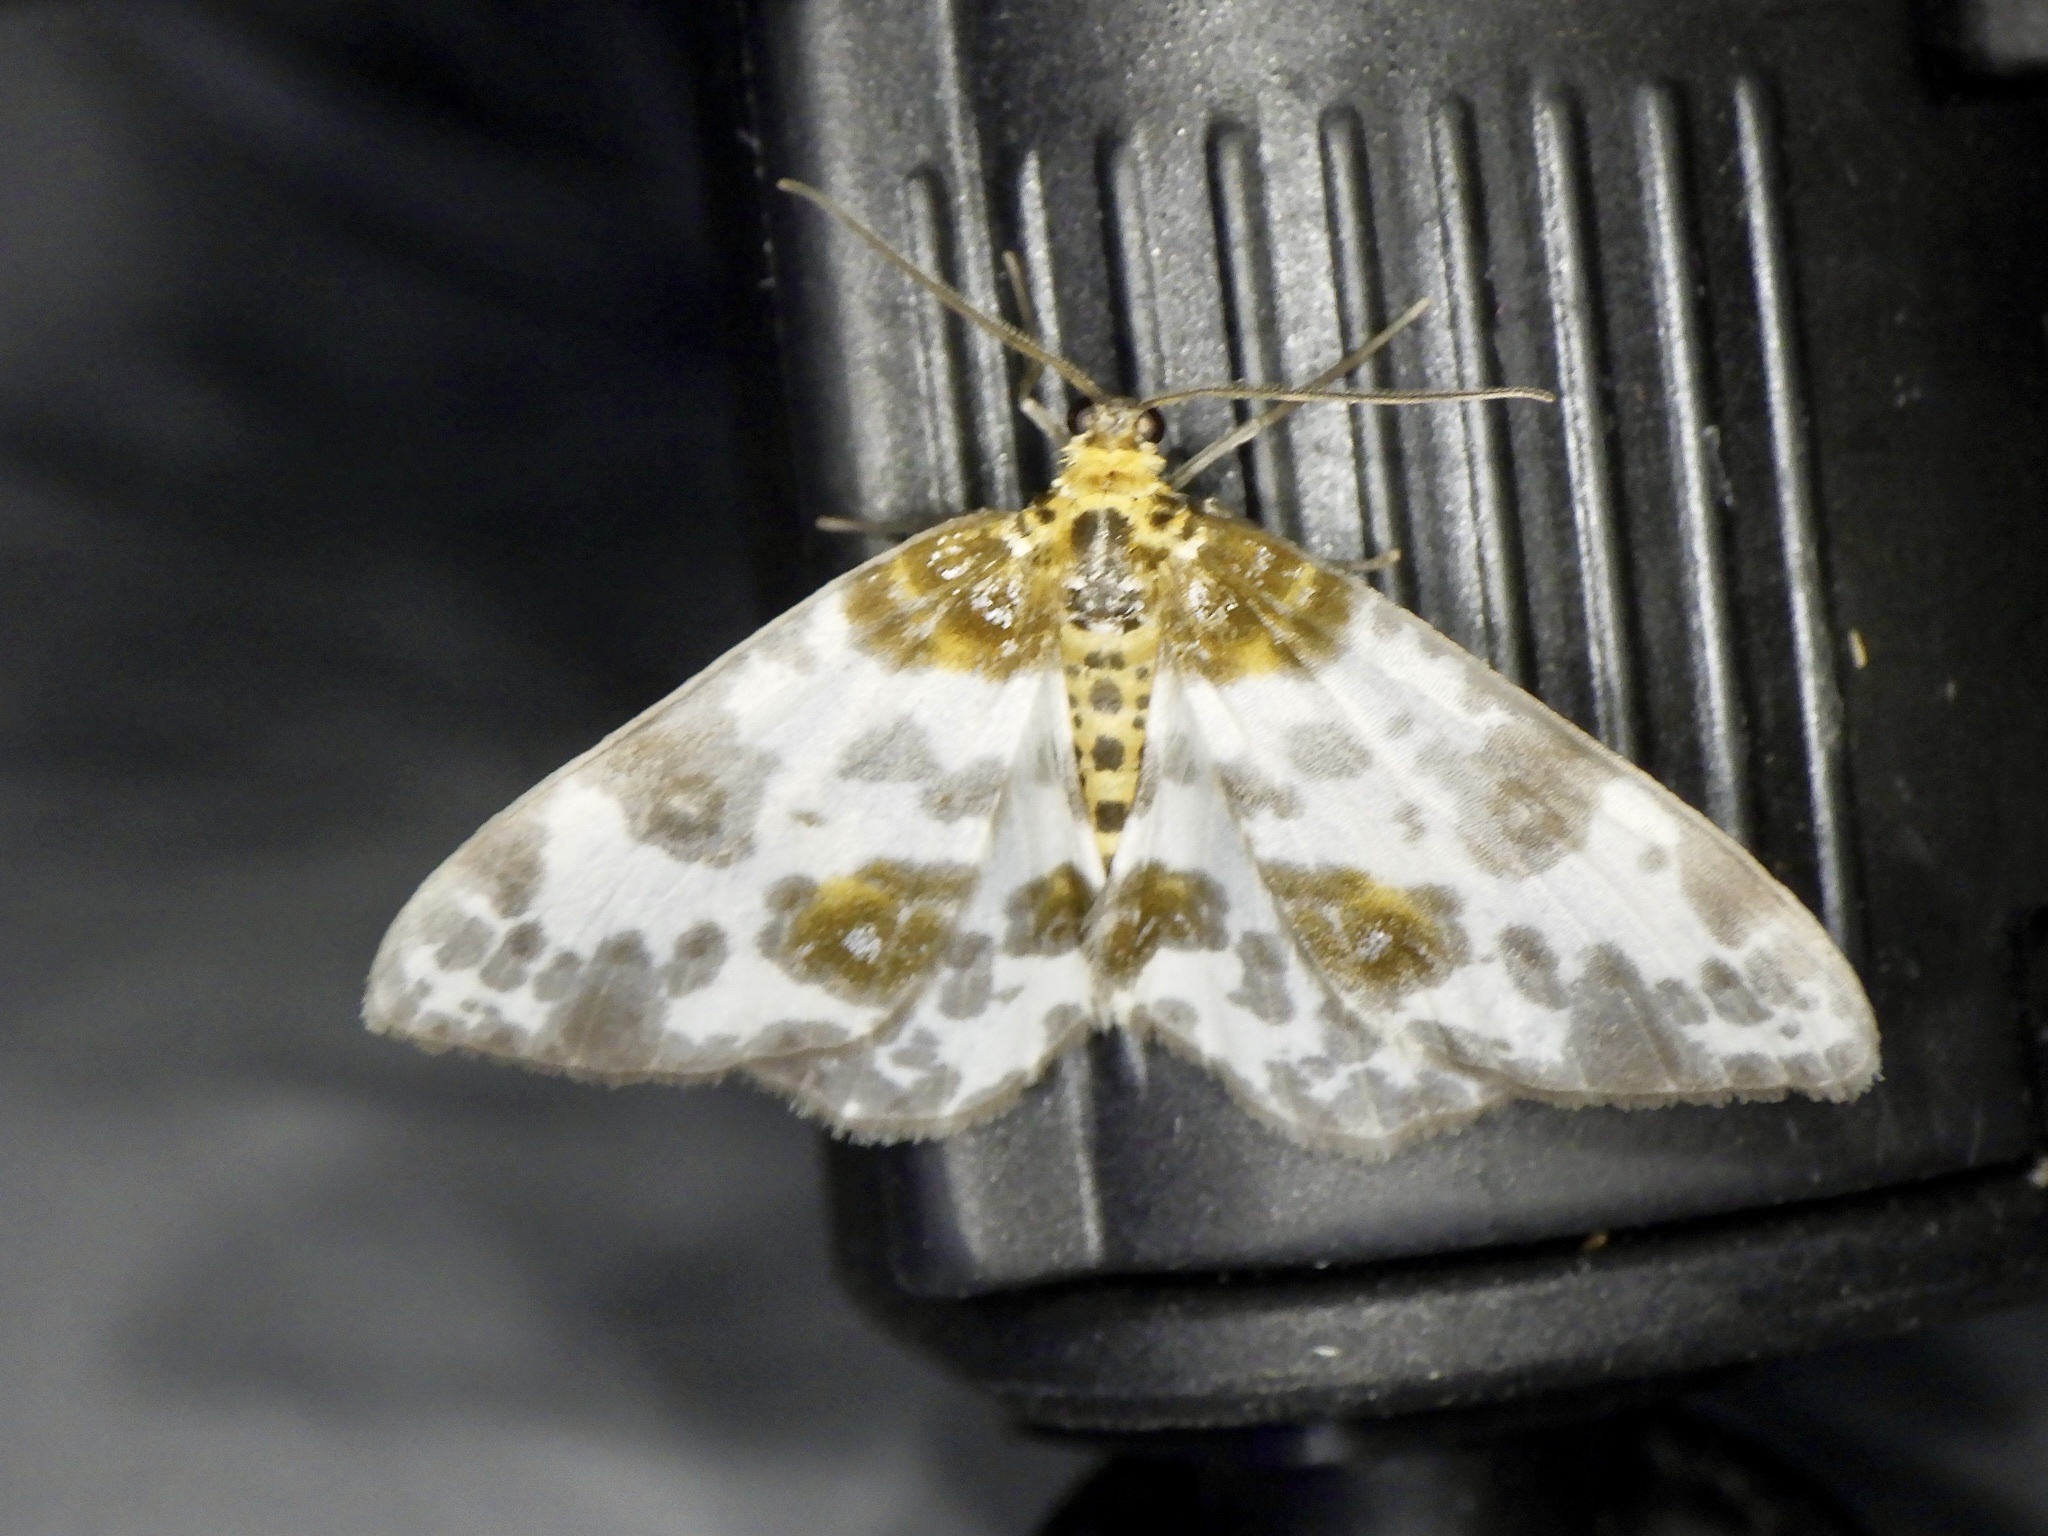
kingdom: Animalia
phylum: Arthropoda
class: Insecta
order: Lepidoptera
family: Geometridae
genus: Abraxas
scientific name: Abraxas niphonibia
